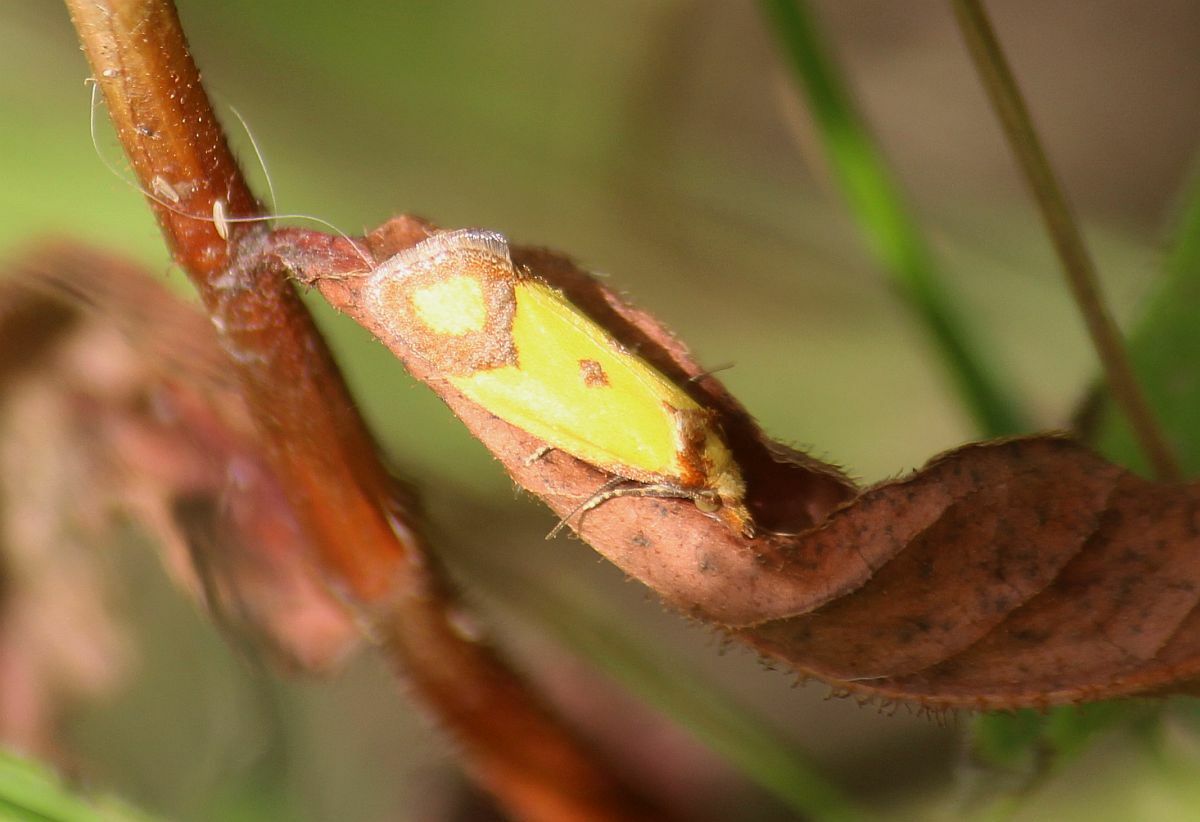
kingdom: Animalia
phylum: Arthropoda
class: Insecta
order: Lepidoptera
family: Tortricidae
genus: Agapeta
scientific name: Agapeta zoegana
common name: Sulfur knapweed root moth
